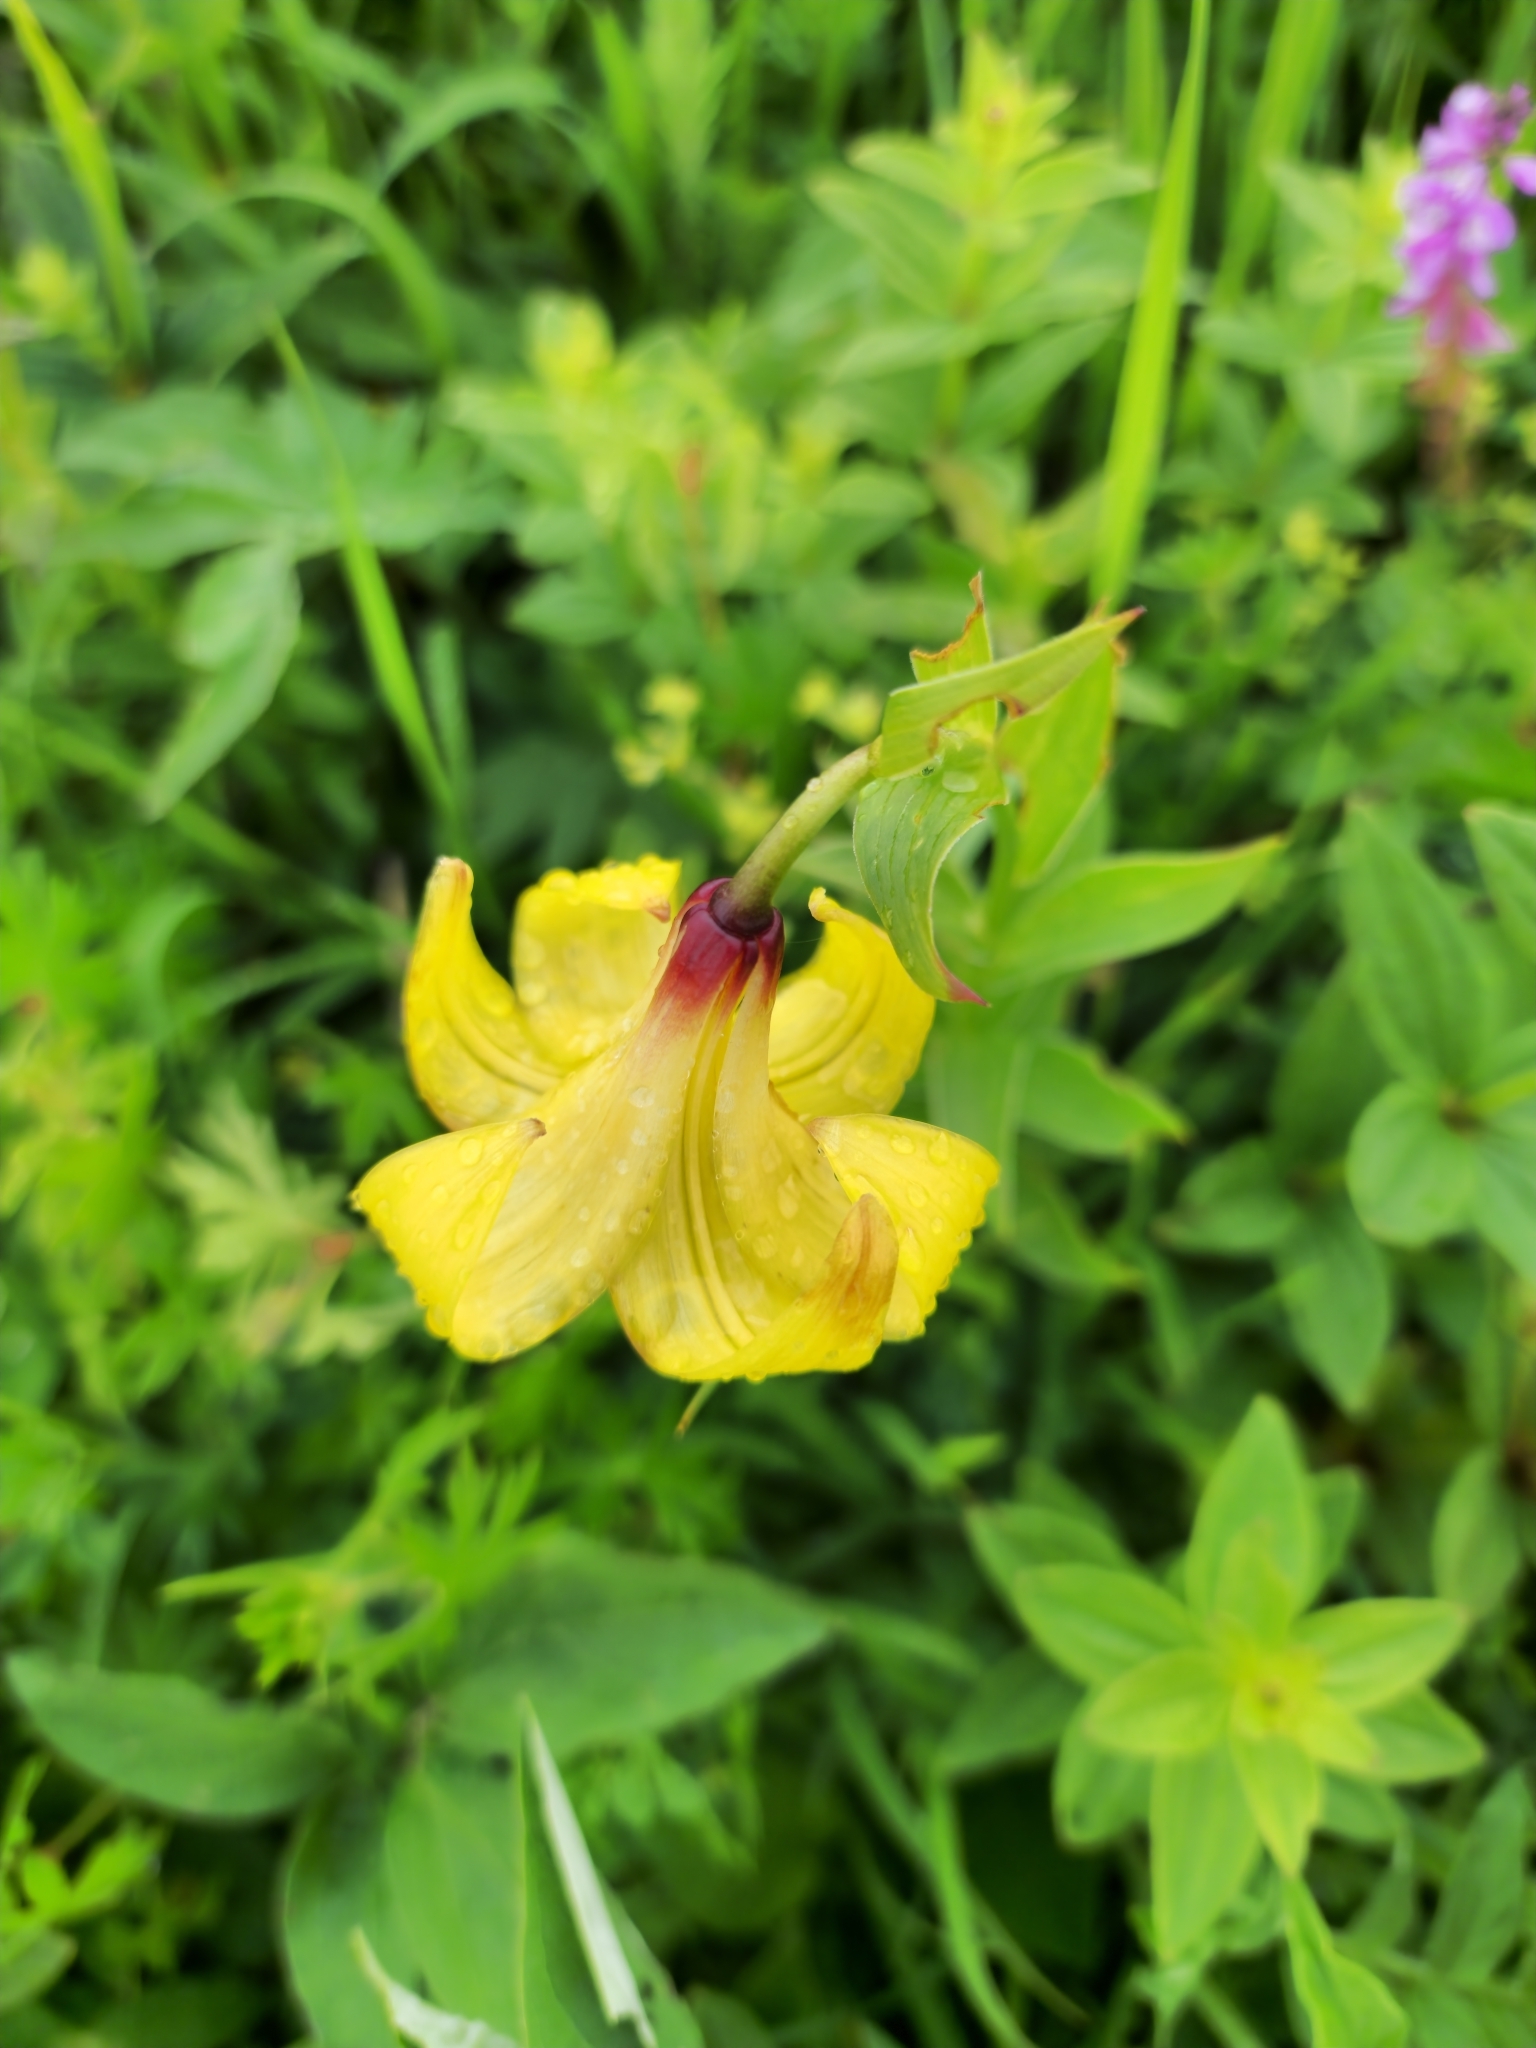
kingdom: Plantae
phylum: Tracheophyta
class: Liliopsida
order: Liliales
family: Liliaceae
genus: Lilium
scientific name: Lilium monadelphum
